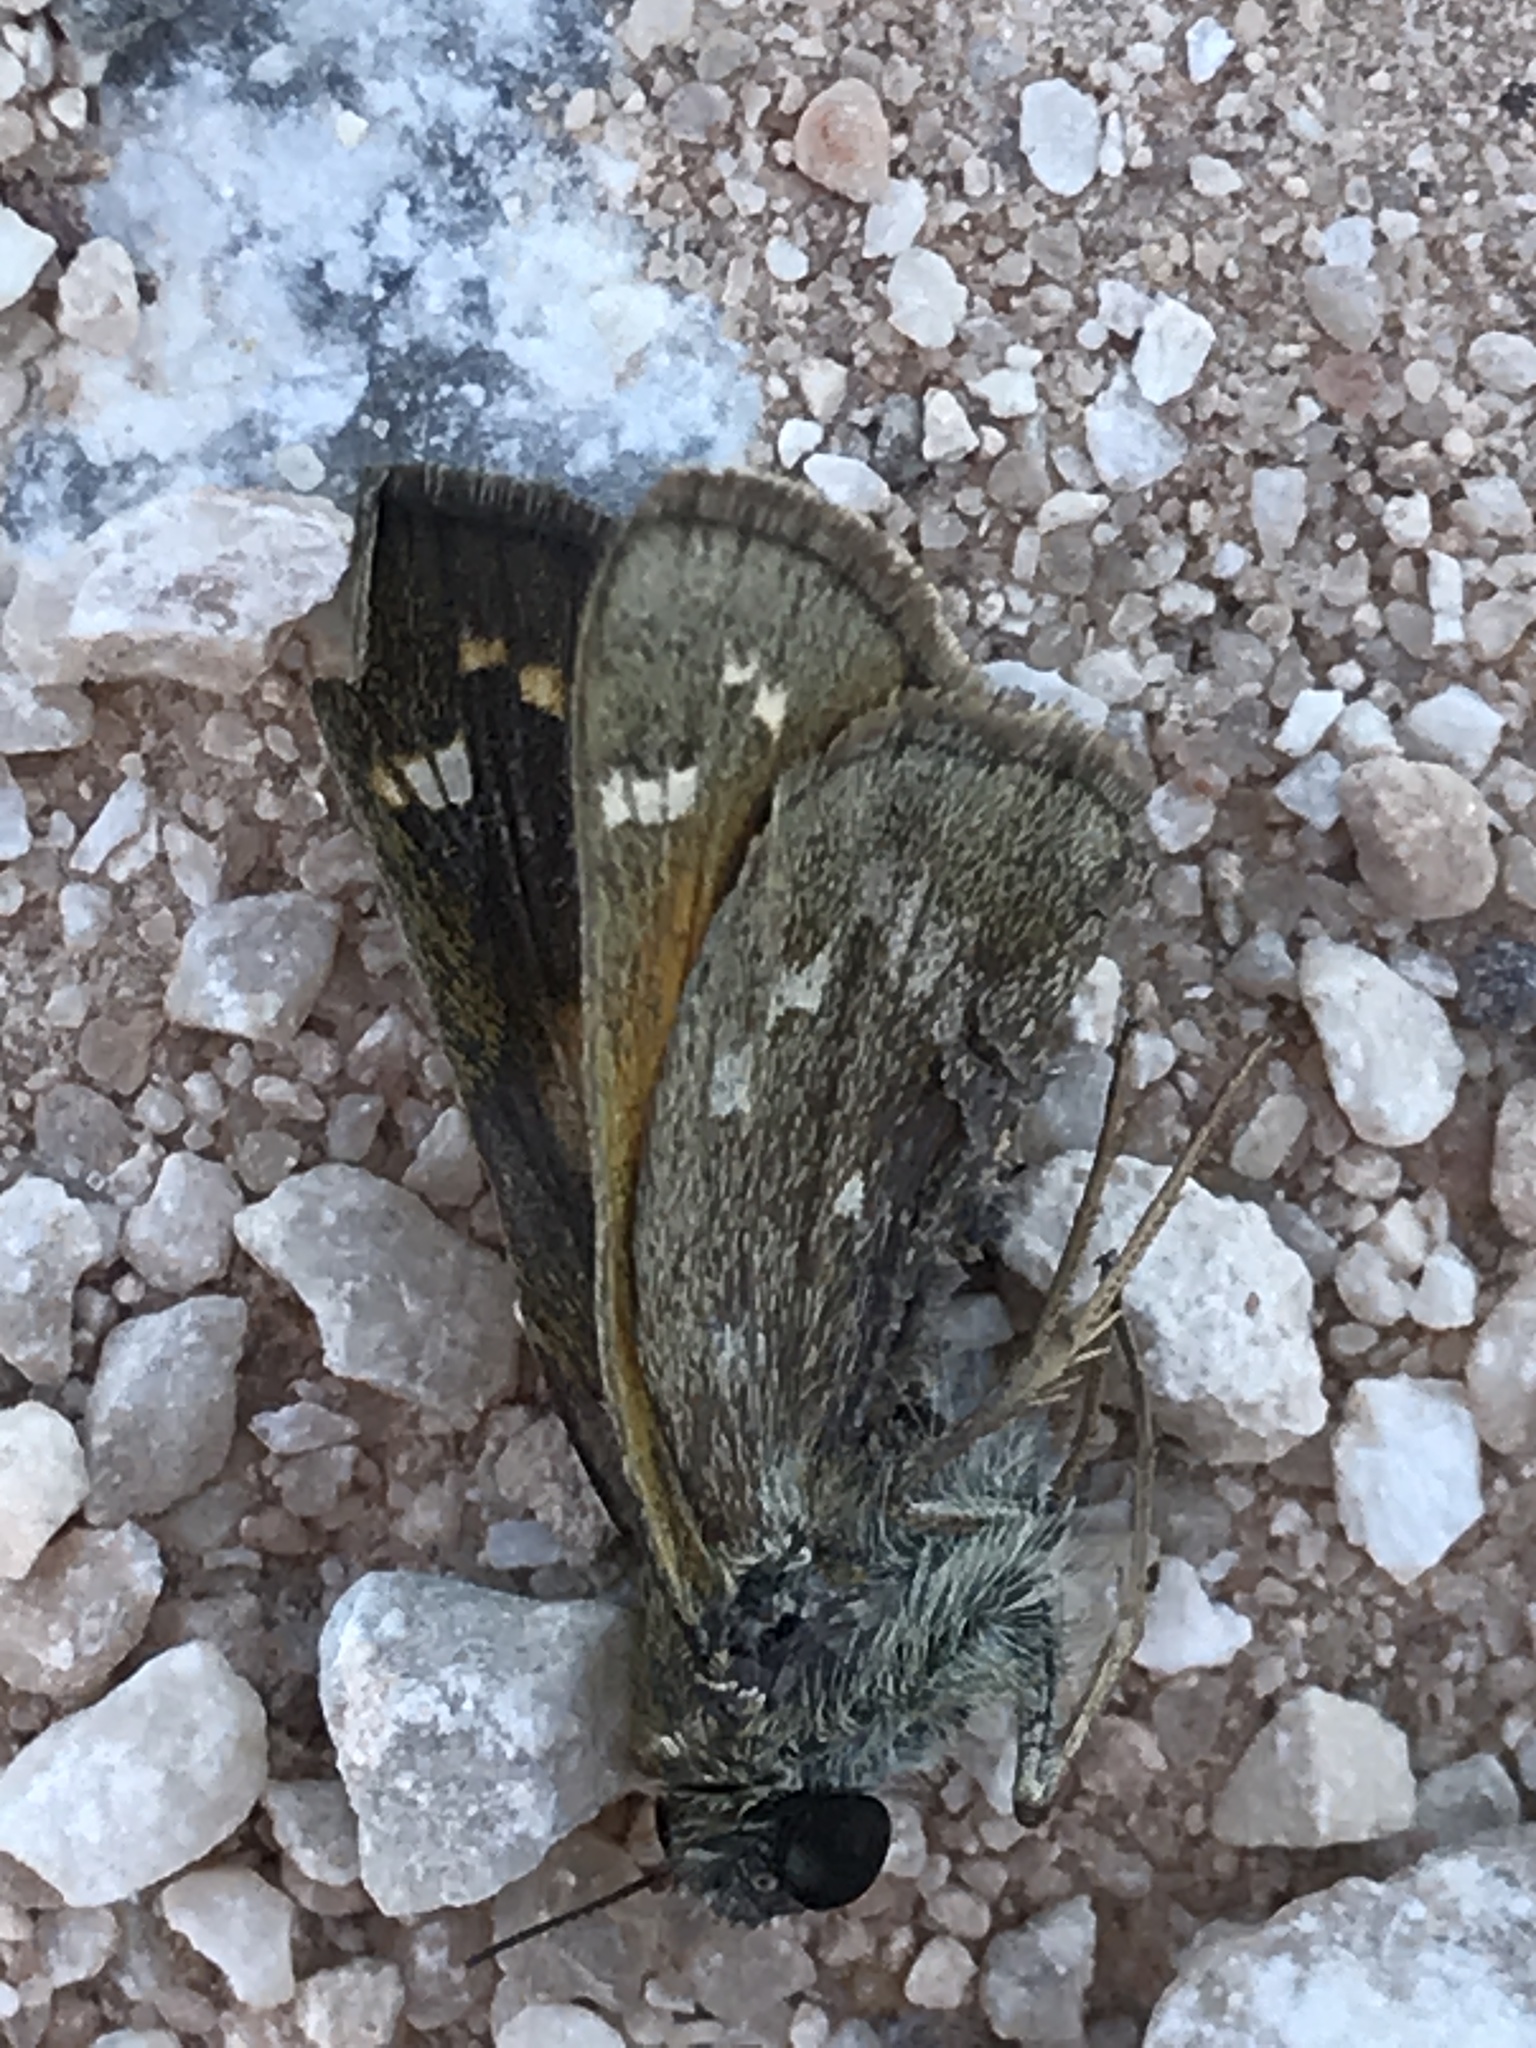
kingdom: Animalia
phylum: Arthropoda
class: Insecta
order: Lepidoptera
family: Hesperiidae
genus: Atalopedes
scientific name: Atalopedes
